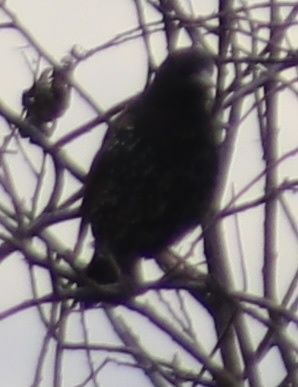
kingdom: Animalia
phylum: Chordata
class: Aves
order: Passeriformes
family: Sturnidae
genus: Sturnus
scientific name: Sturnus vulgaris
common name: Common starling
